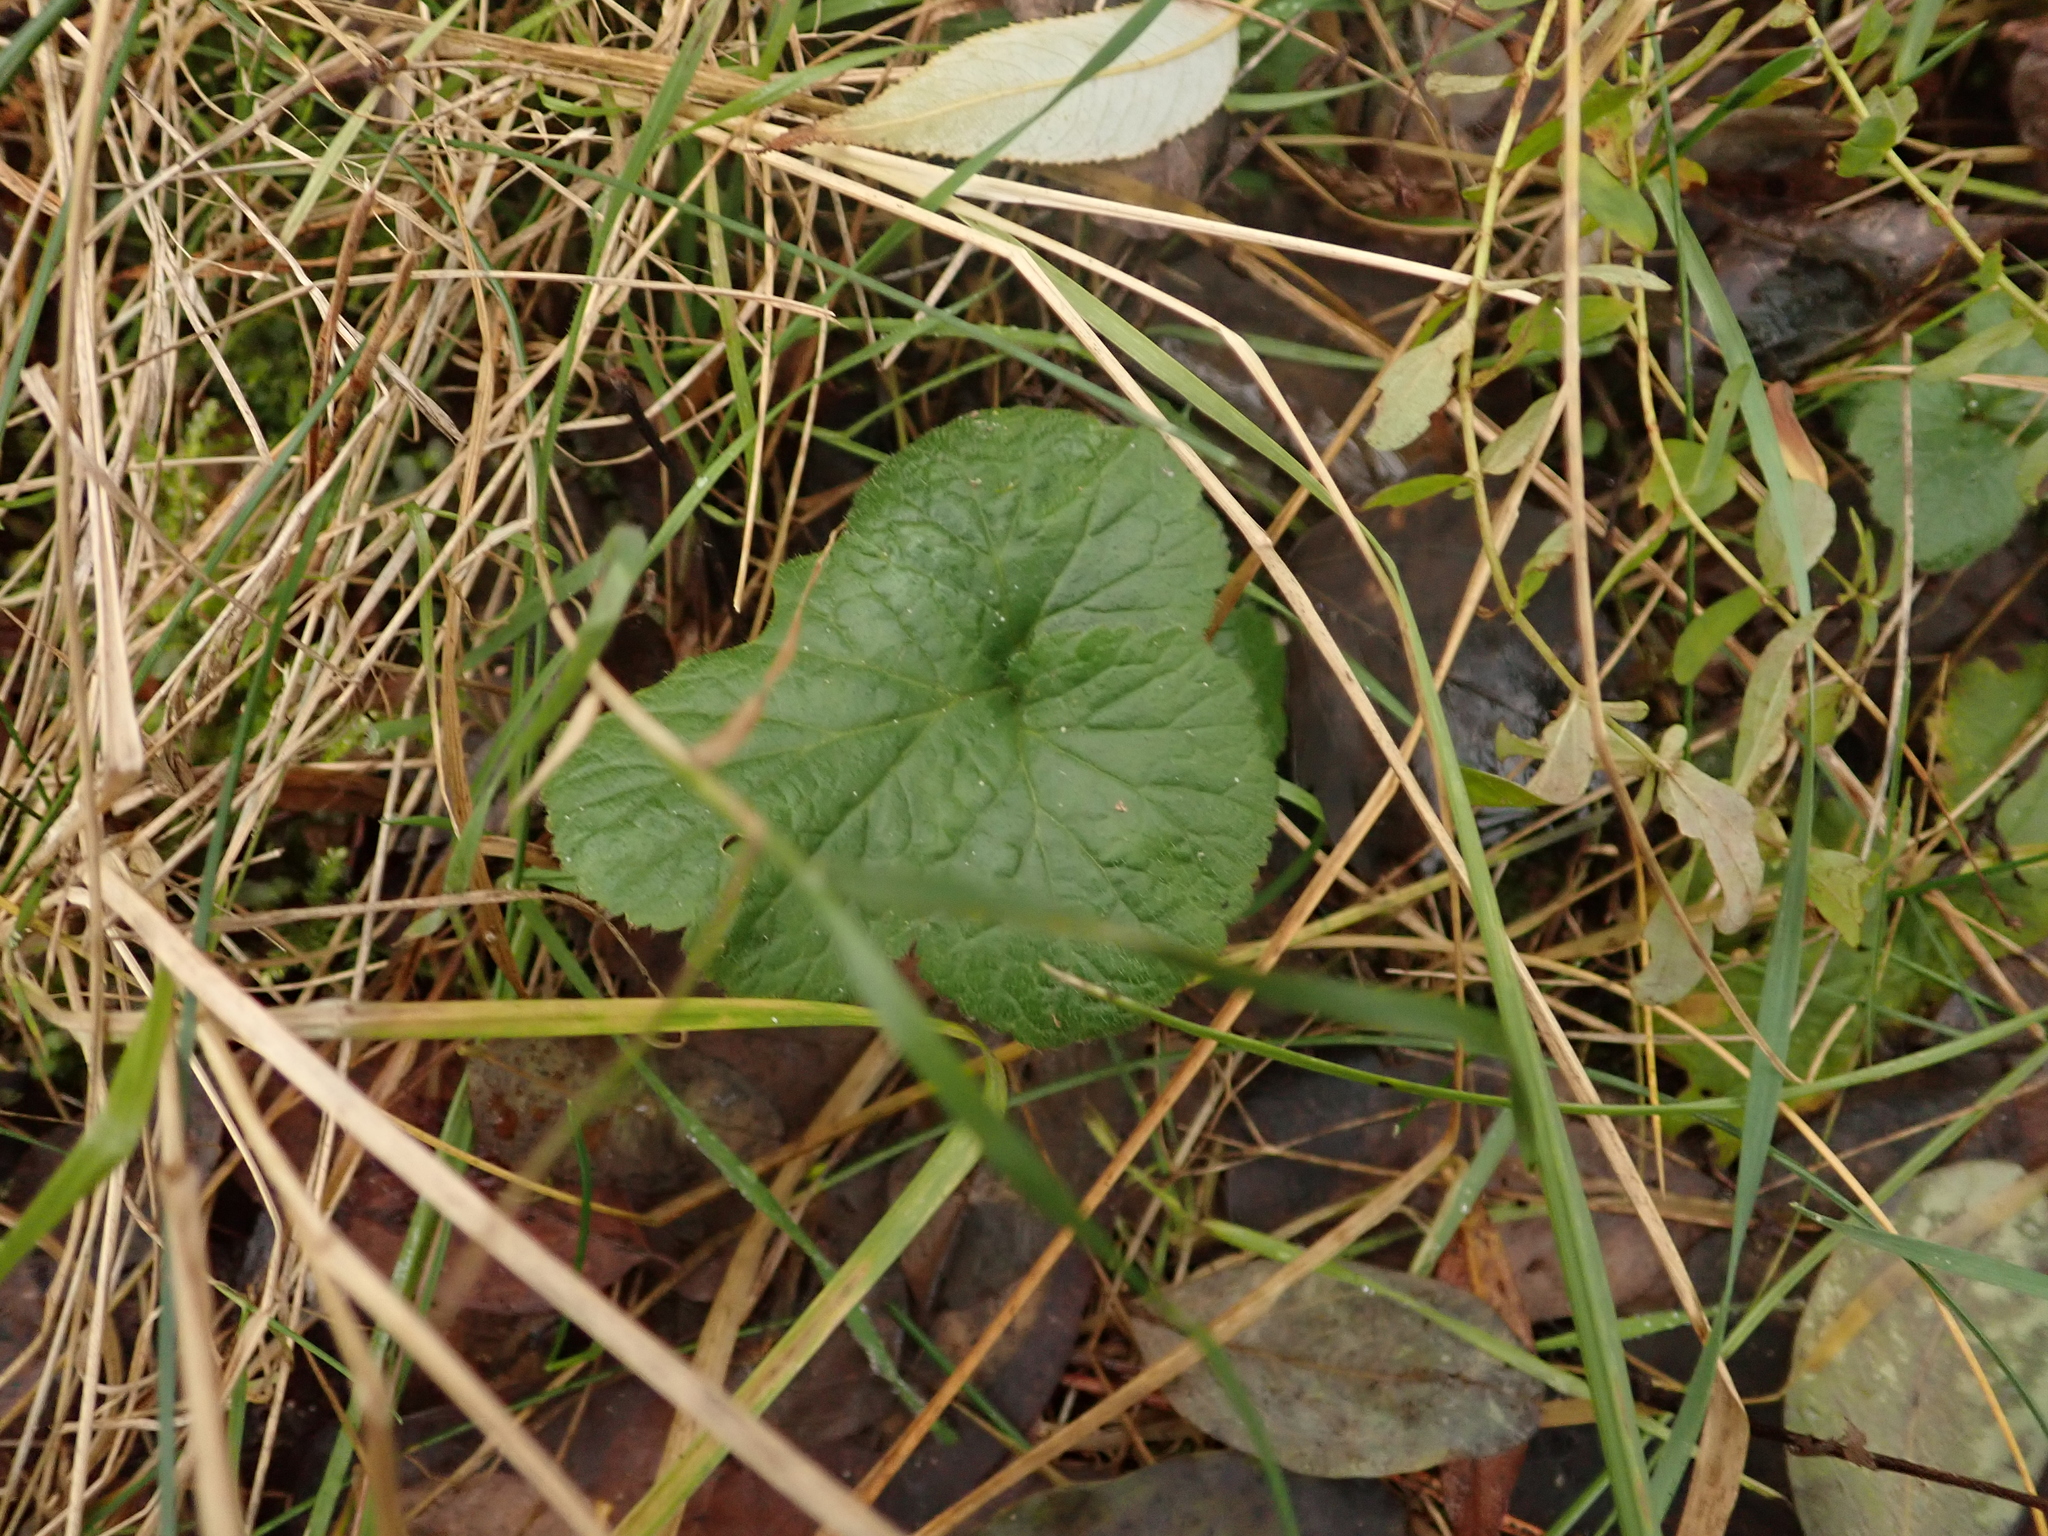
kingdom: Plantae
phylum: Tracheophyta
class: Magnoliopsida
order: Rosales
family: Rosaceae
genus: Geum
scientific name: Geum urbanum
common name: Wood avens
